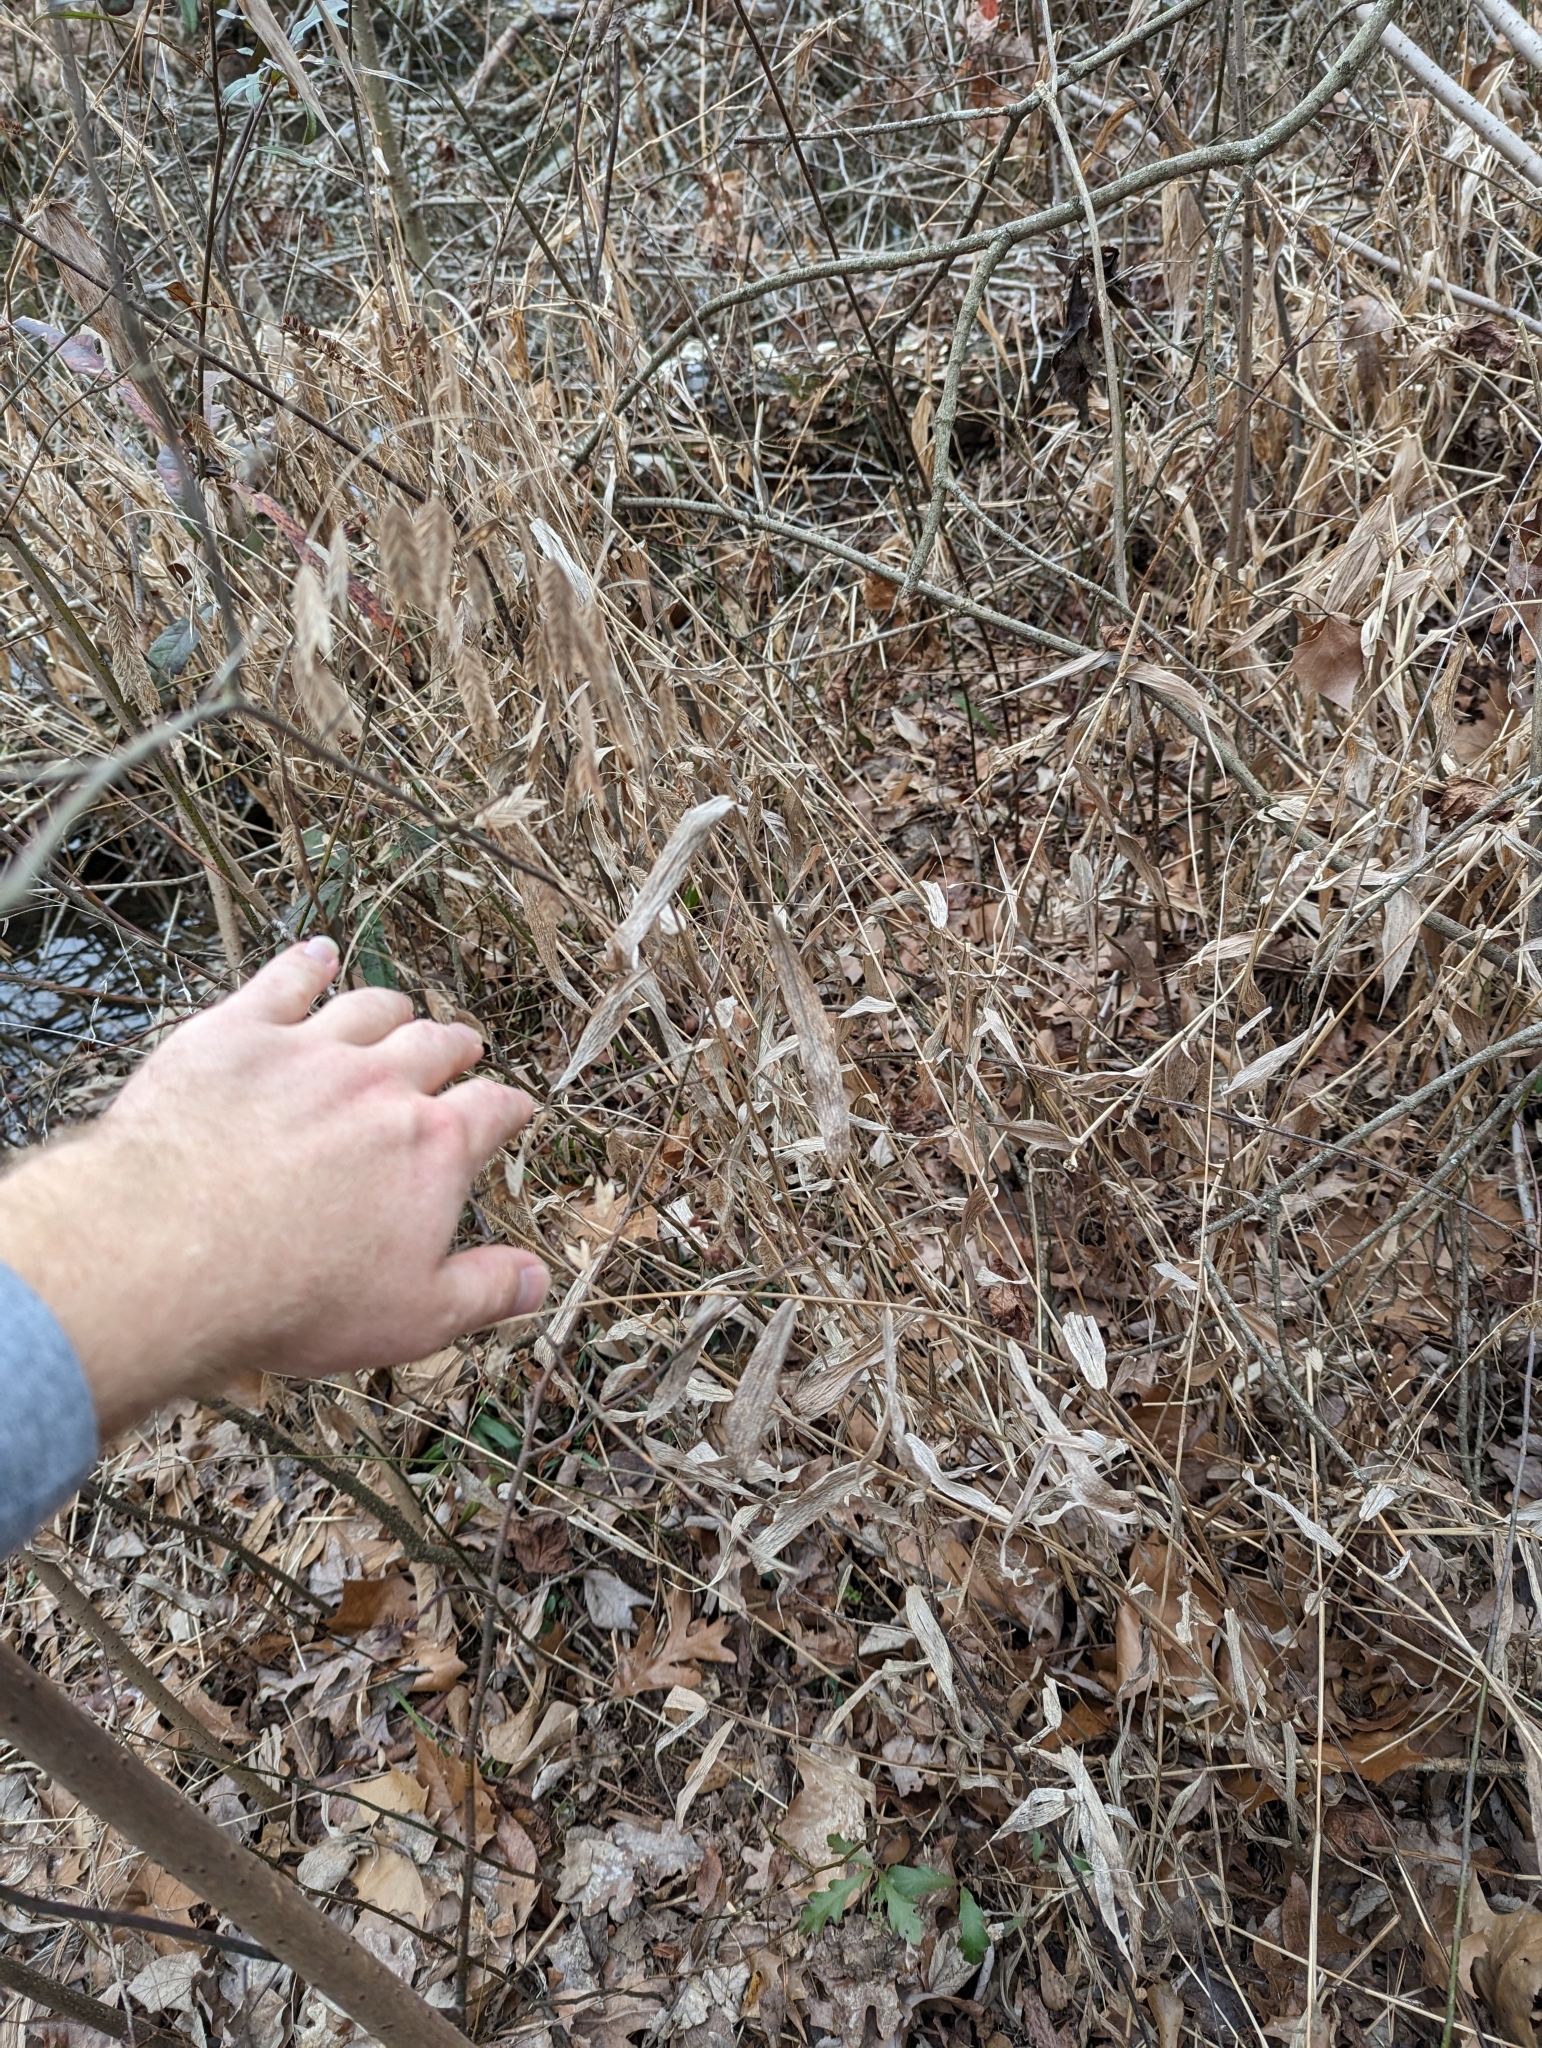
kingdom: Plantae
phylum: Tracheophyta
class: Liliopsida
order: Poales
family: Poaceae
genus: Chasmanthium
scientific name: Chasmanthium latifolium
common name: Broad-leaved chasmanthium
